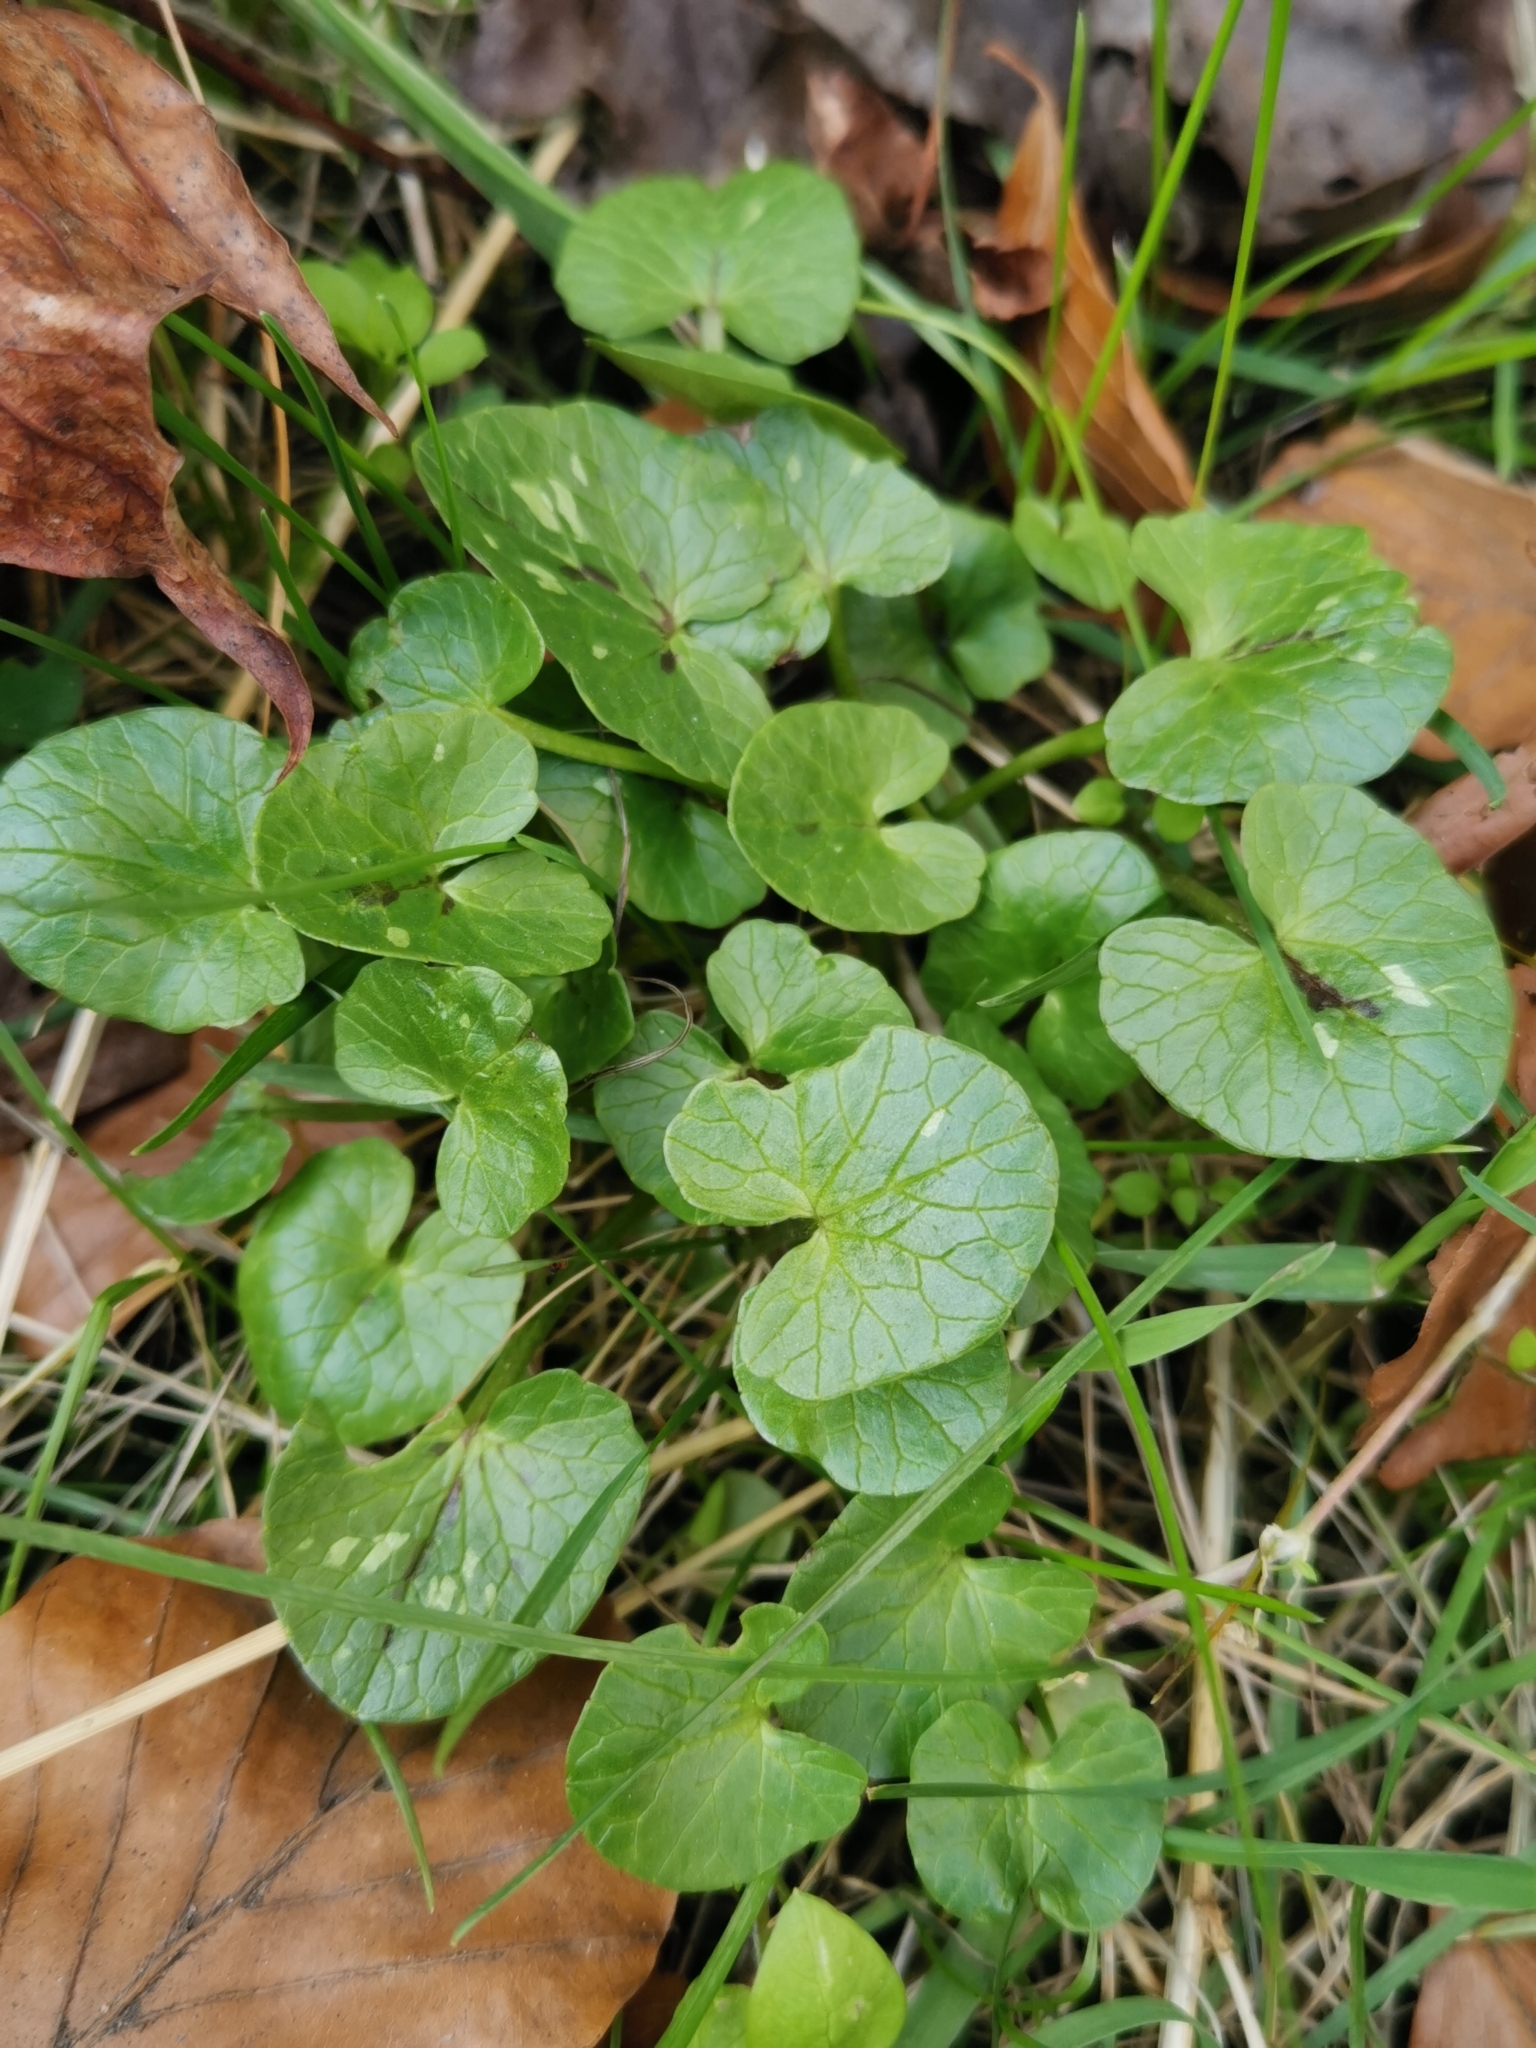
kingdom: Plantae
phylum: Tracheophyta
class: Magnoliopsida
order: Ranunculales
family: Ranunculaceae
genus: Ficaria
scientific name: Ficaria verna
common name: Lesser celandine
